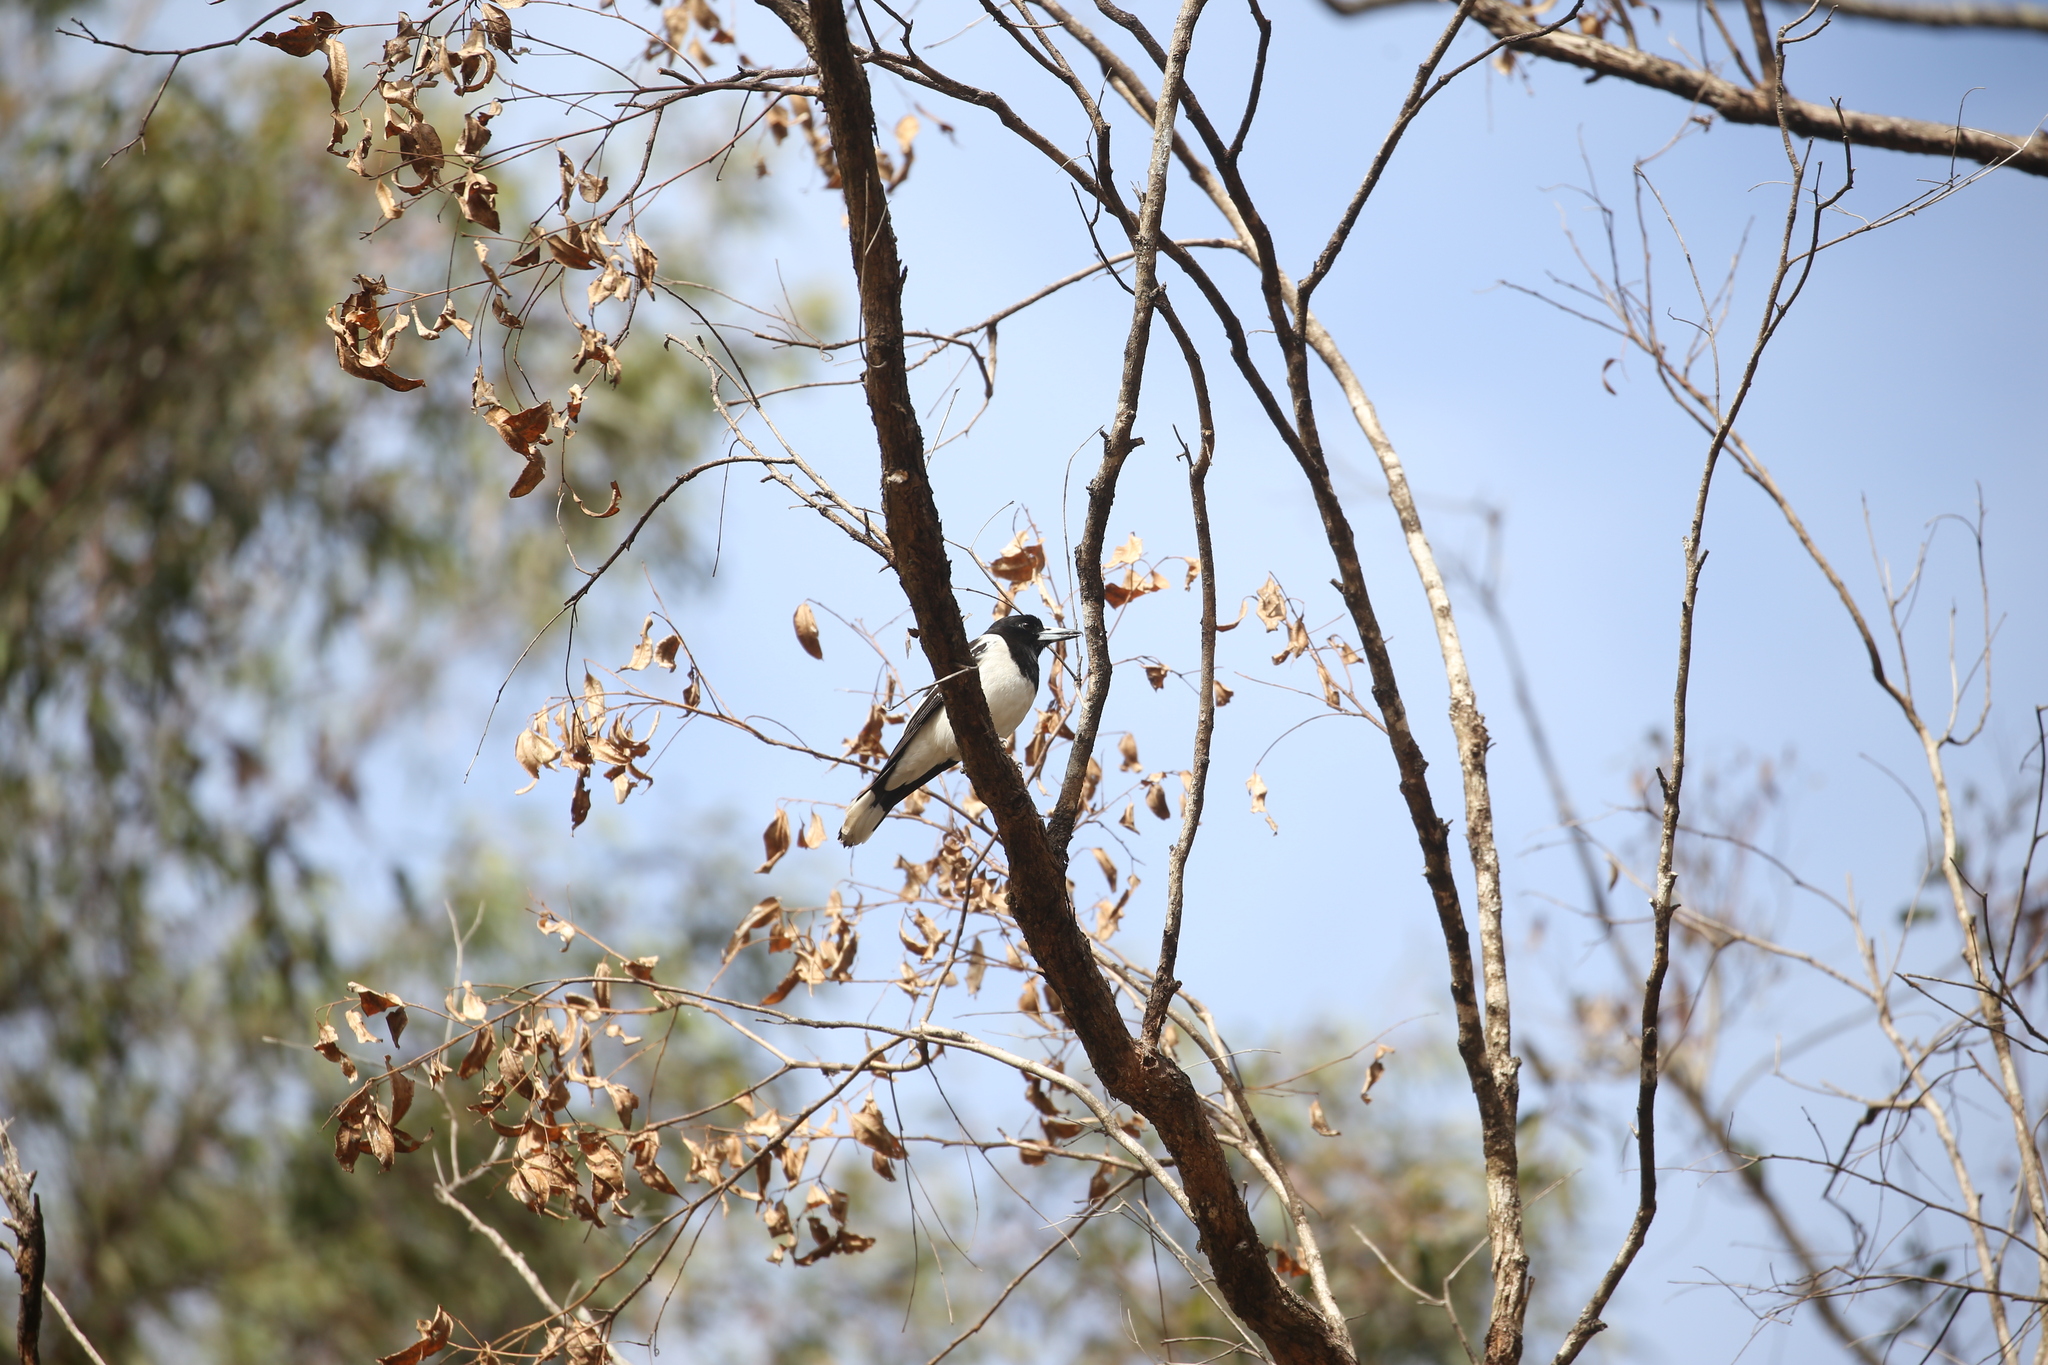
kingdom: Animalia
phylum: Chordata
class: Aves
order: Passeriformes
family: Cracticidae
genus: Cracticus
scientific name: Cracticus nigrogularis
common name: Pied butcherbird
